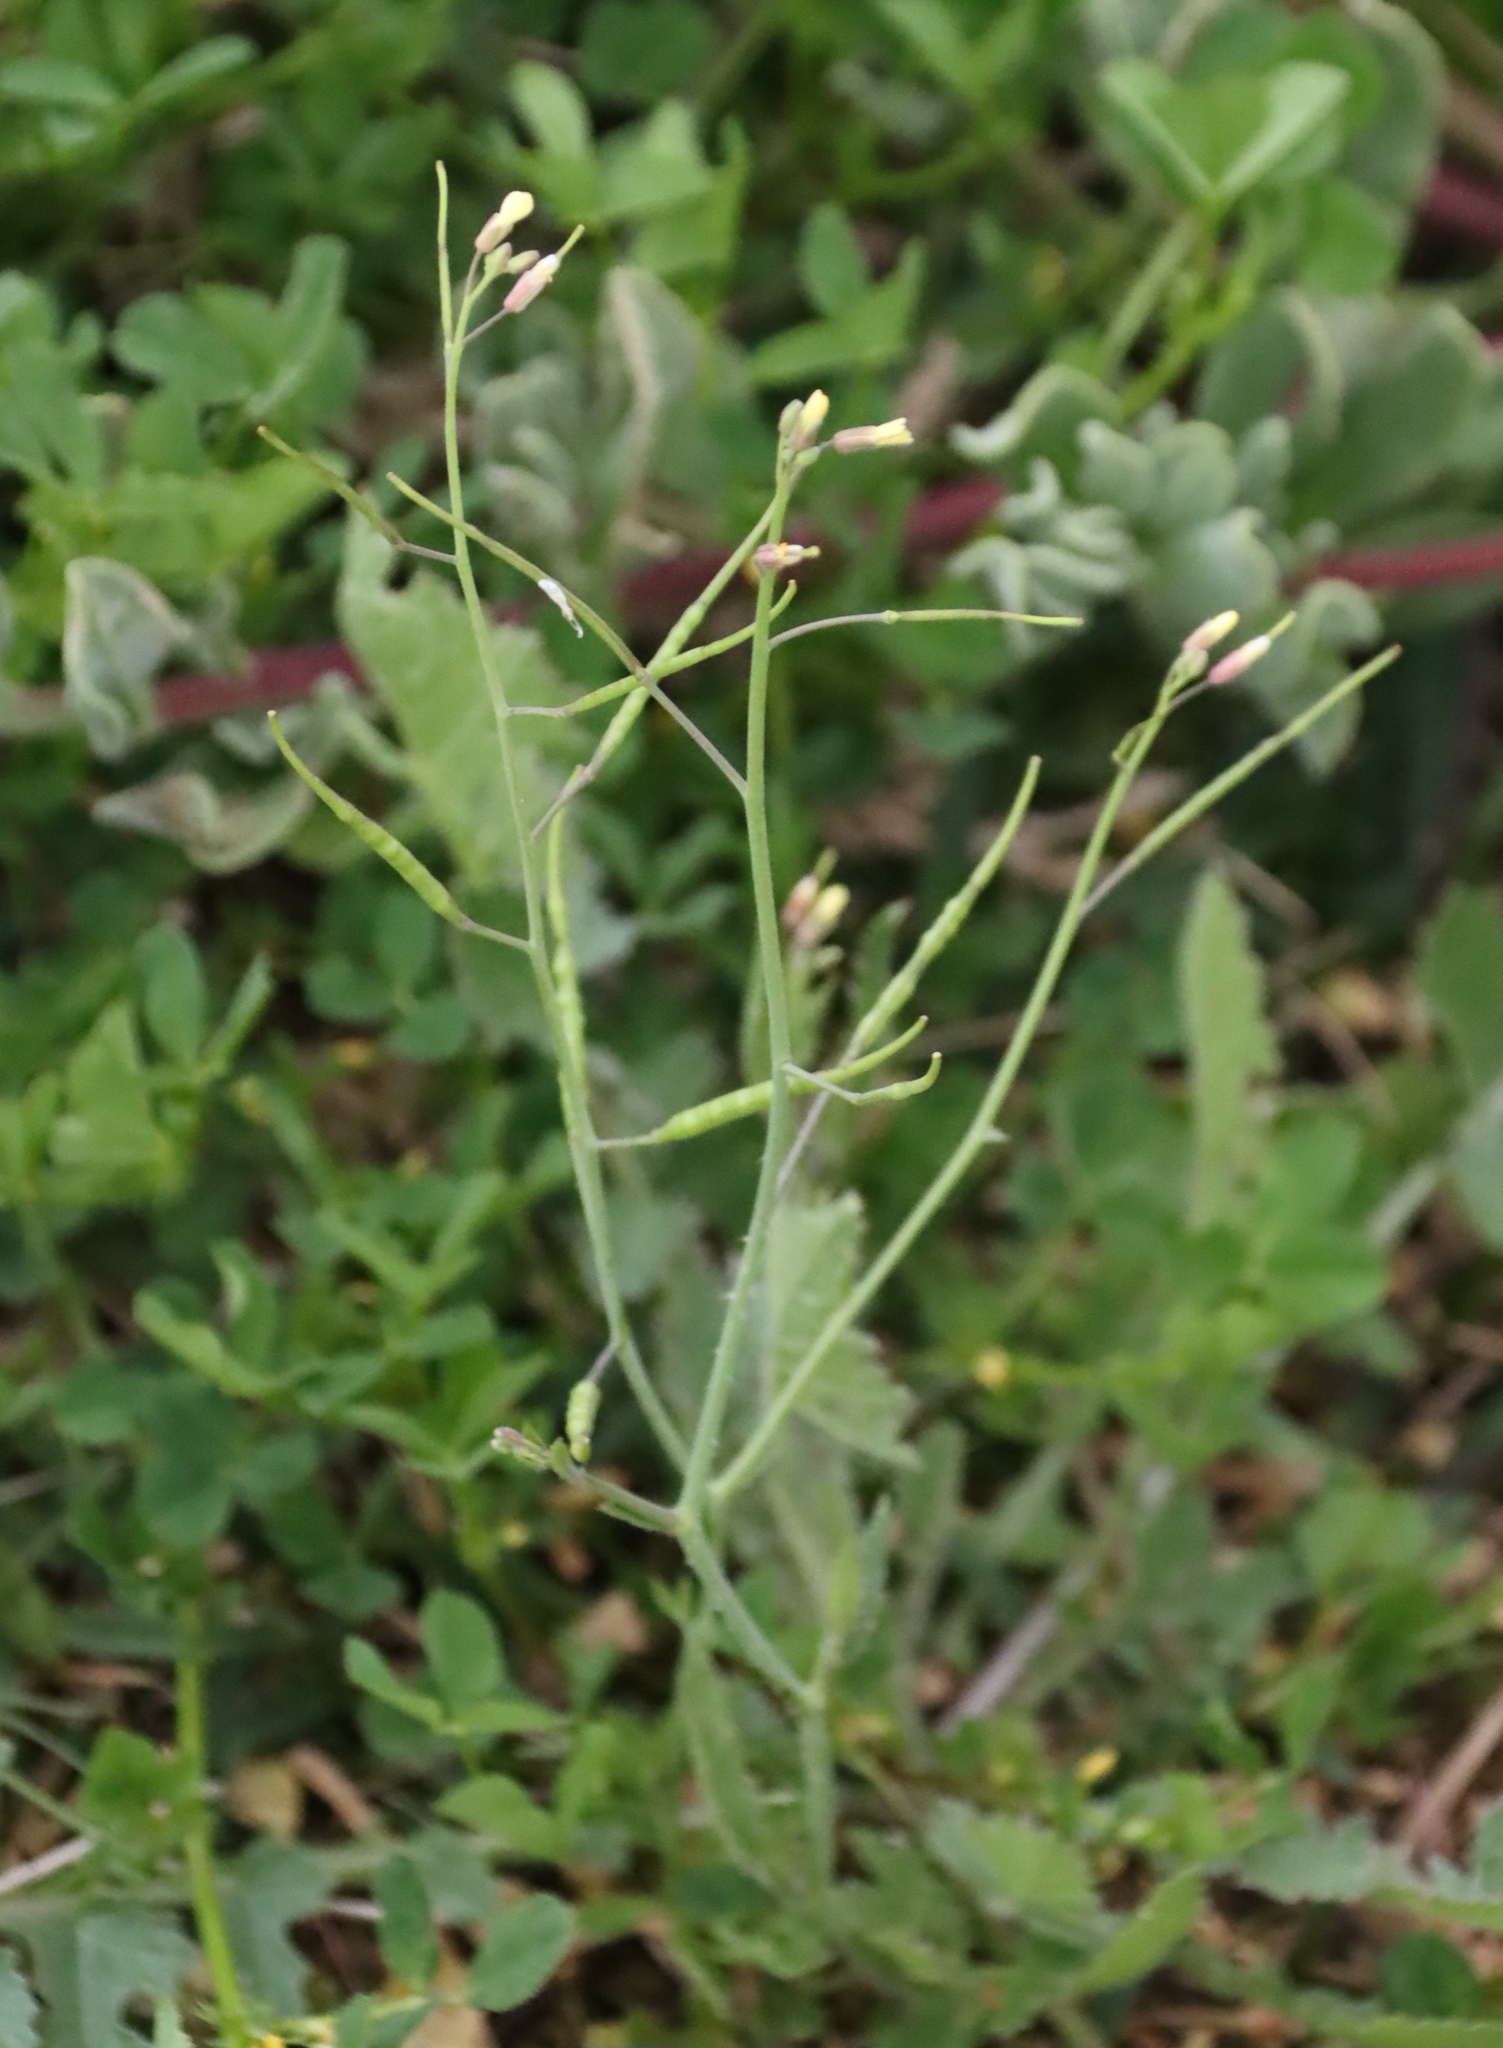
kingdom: Plantae
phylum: Tracheophyta
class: Magnoliopsida
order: Brassicales
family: Brassicaceae
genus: Brassica
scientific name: Brassica tournefortii
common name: Pale cabbage
